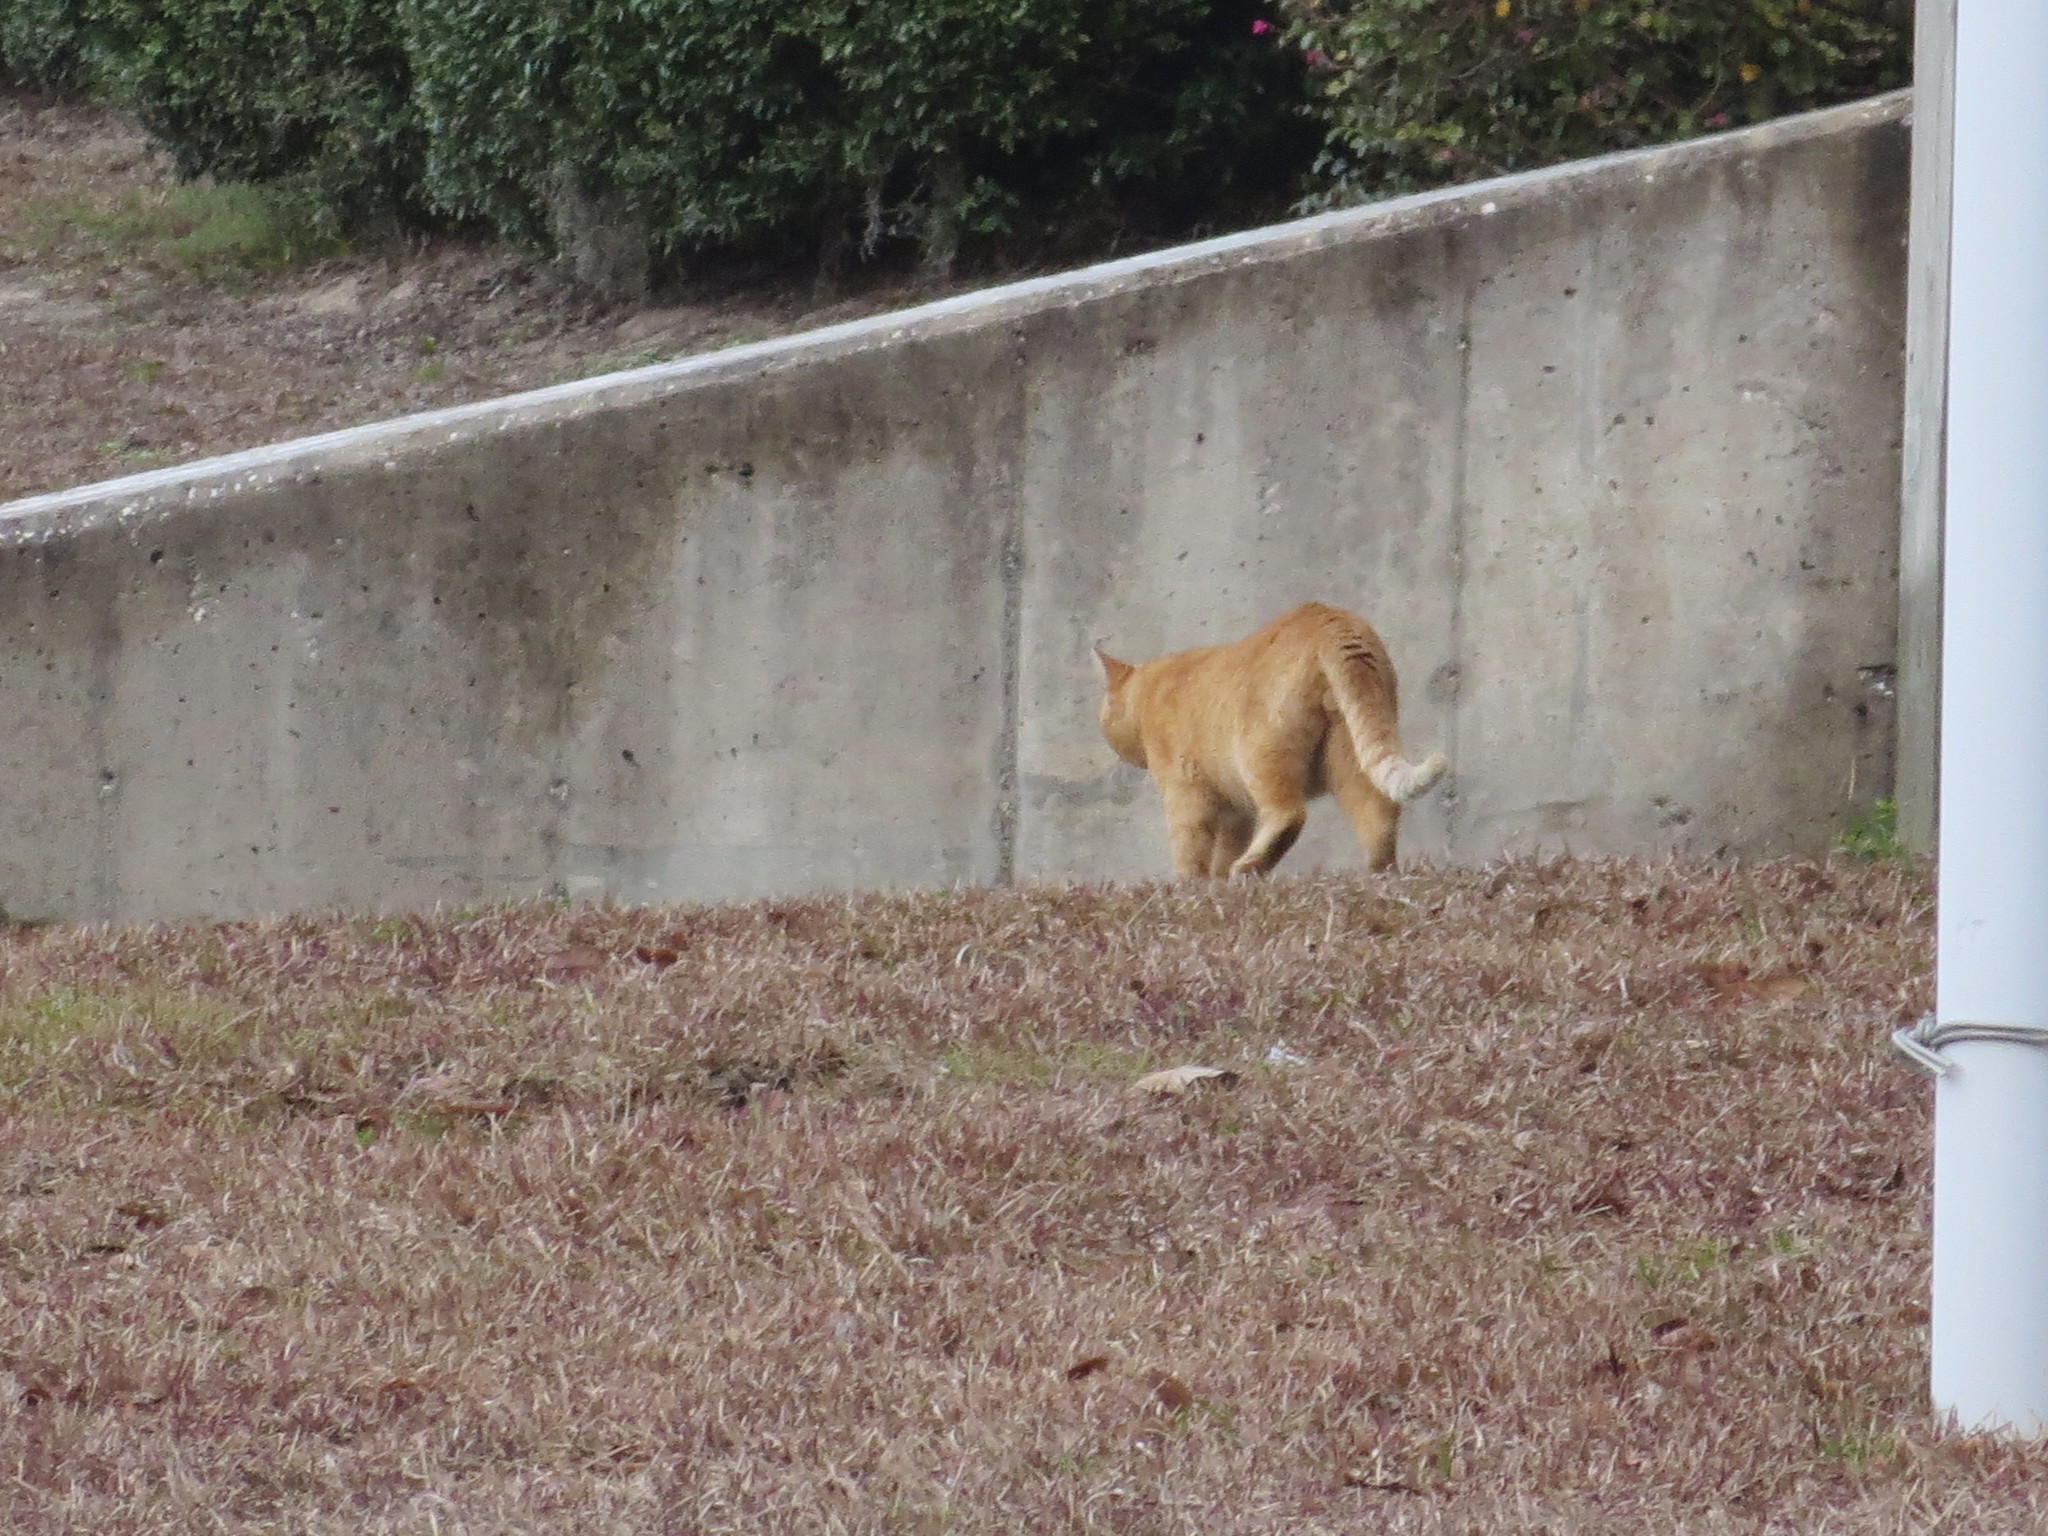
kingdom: Animalia
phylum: Chordata
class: Mammalia
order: Carnivora
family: Felidae
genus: Felis
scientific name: Felis catus
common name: Domestic cat
